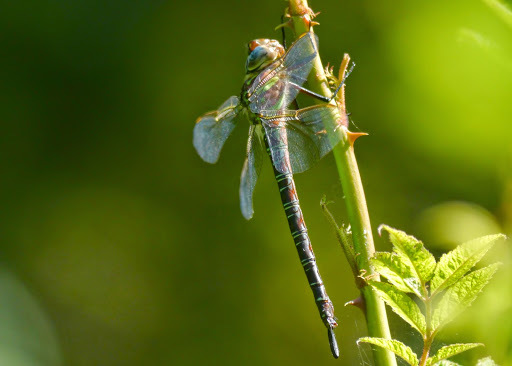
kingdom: Animalia
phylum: Arthropoda
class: Insecta
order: Odonata
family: Aeshnidae
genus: Epiaeschna
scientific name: Epiaeschna heros
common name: Swamp darner
